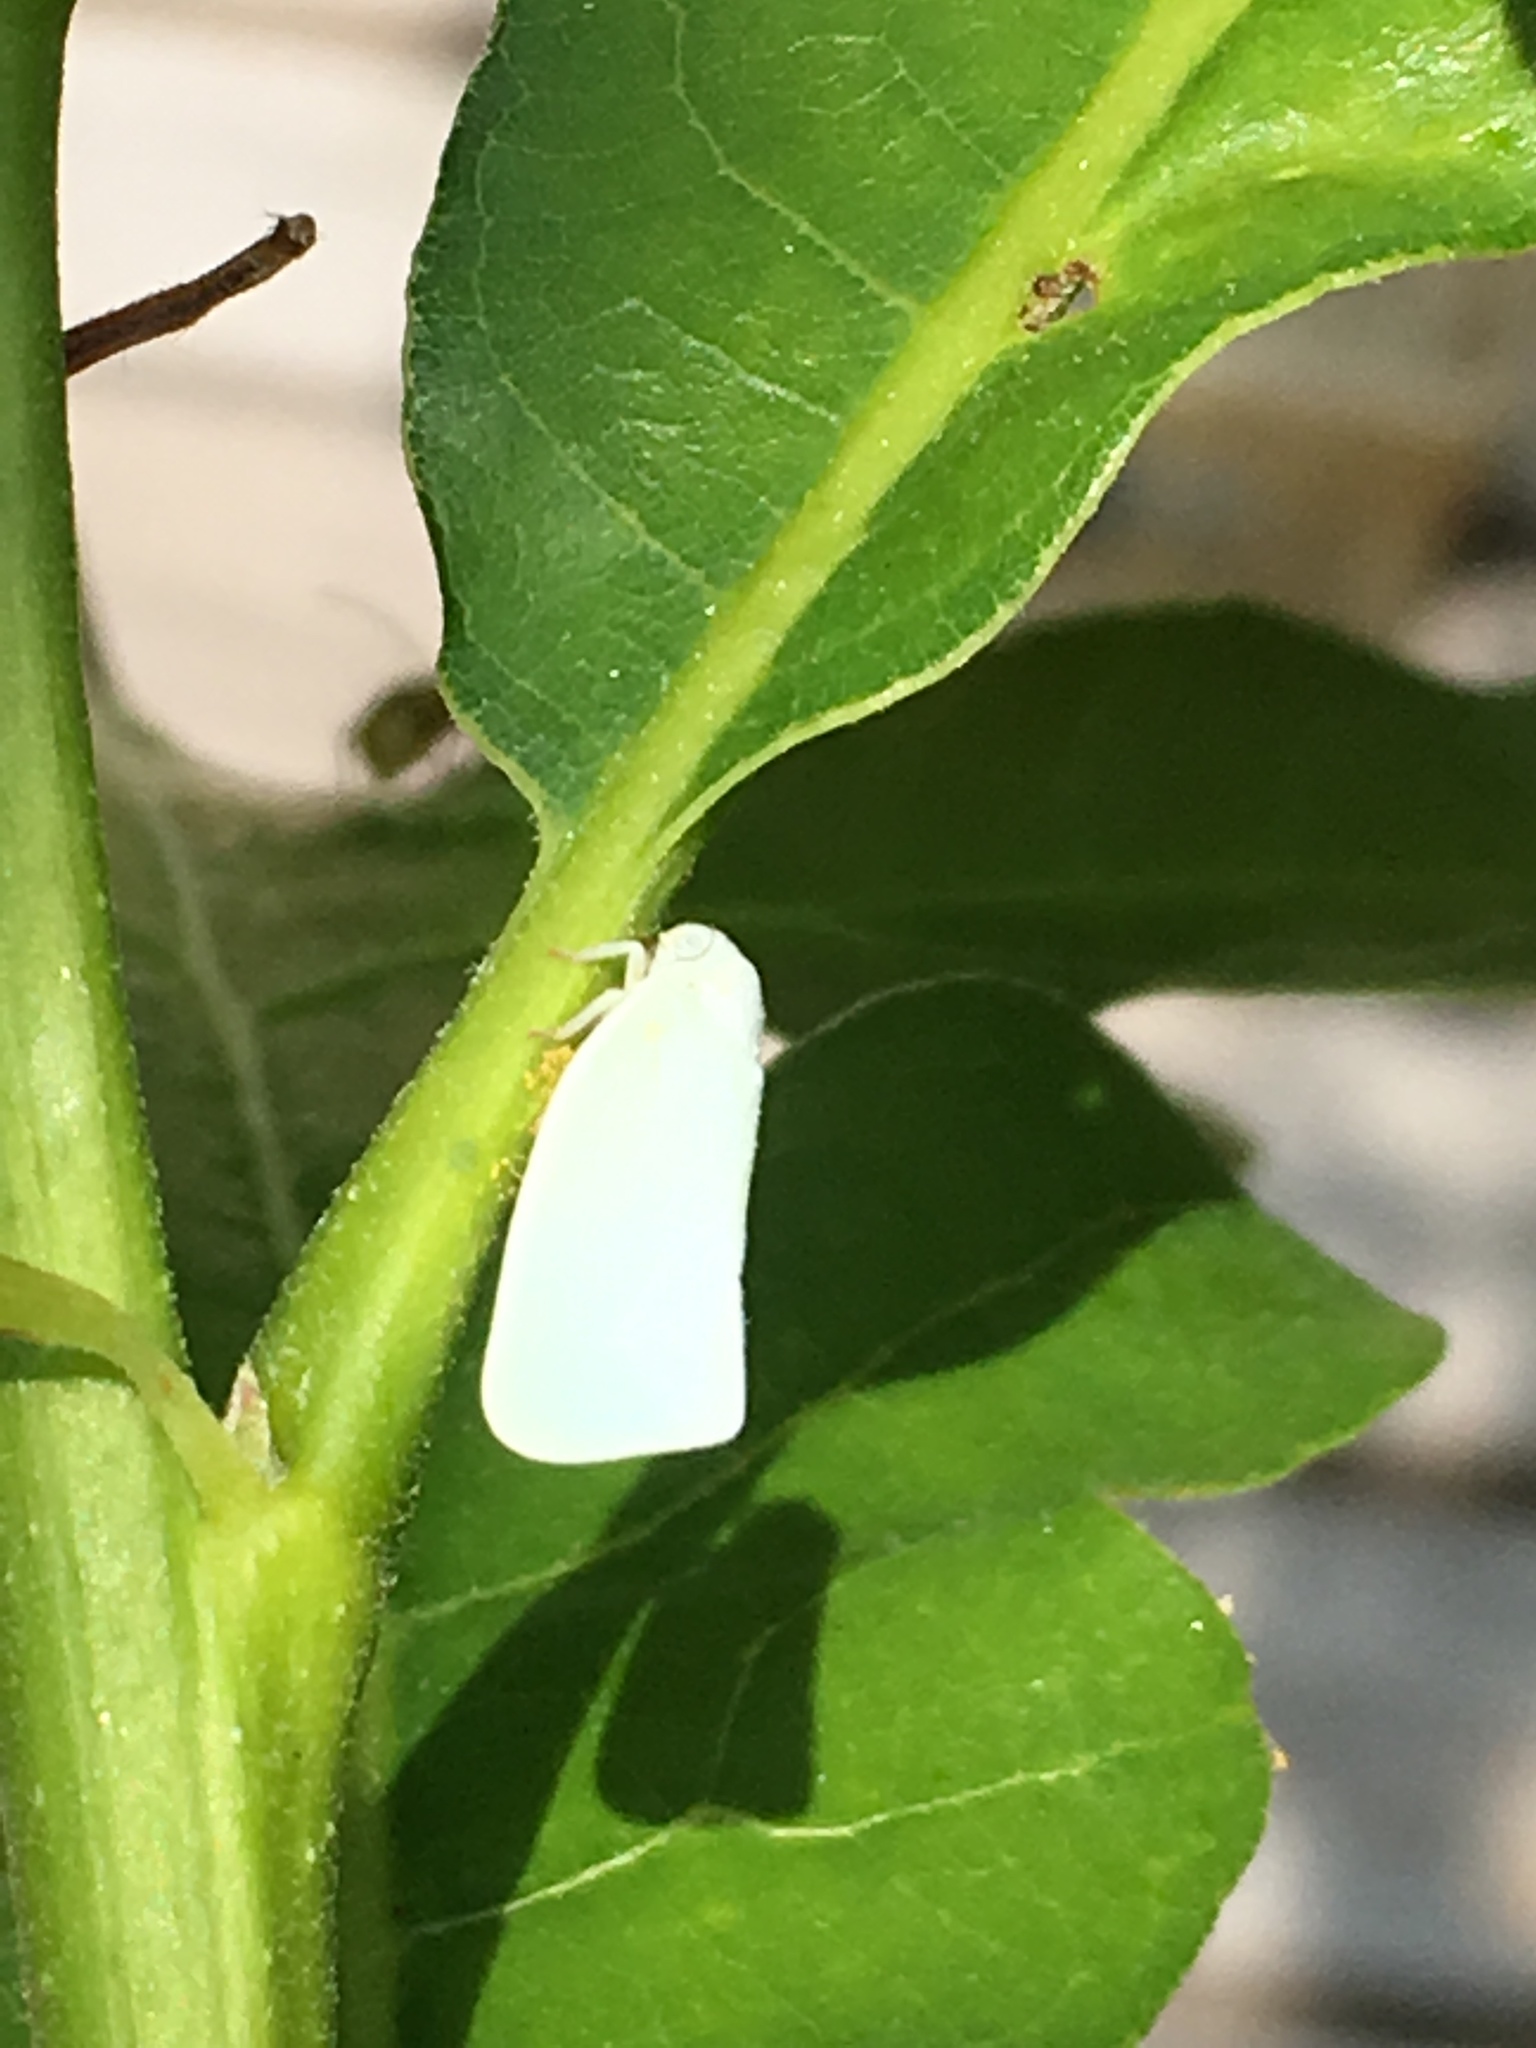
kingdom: Animalia
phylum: Arthropoda
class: Insecta
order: Hemiptera
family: Flatidae
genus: Flatormenis
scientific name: Flatormenis proxima
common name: Northern flatid planthopper
